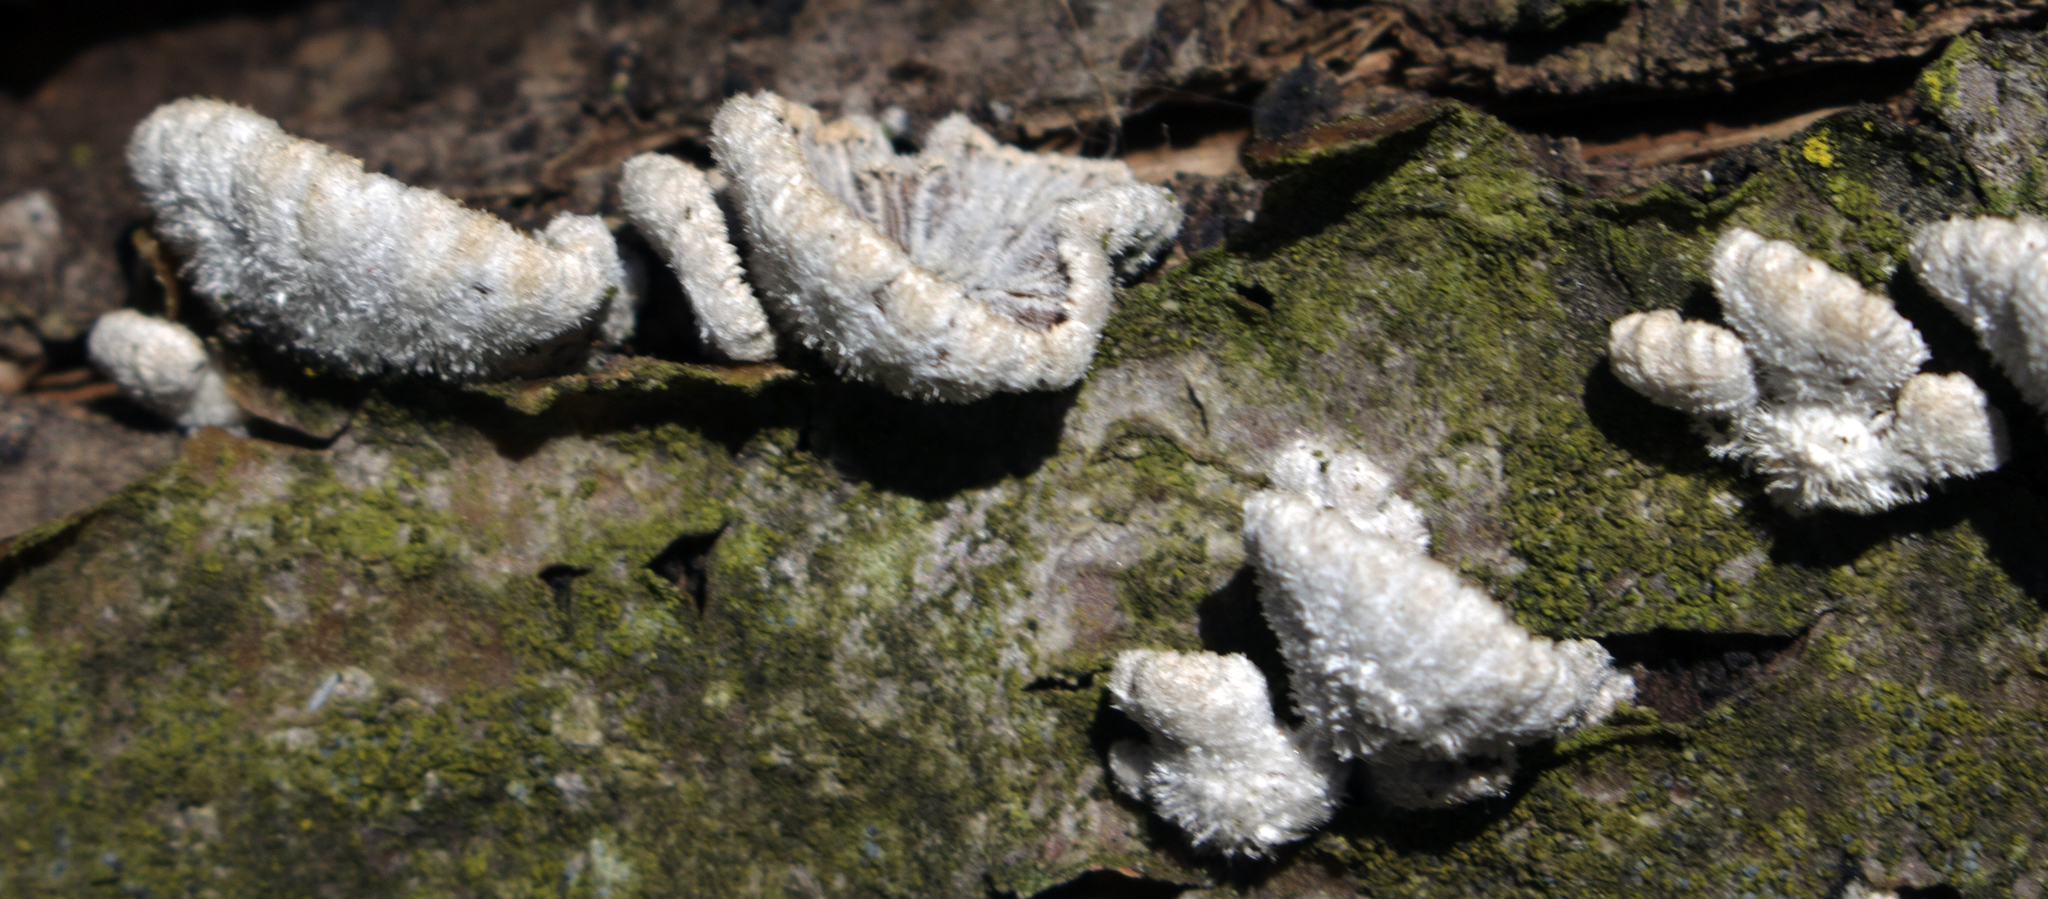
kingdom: Fungi
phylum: Basidiomycota
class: Agaricomycetes
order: Agaricales
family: Schizophyllaceae
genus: Schizophyllum
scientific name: Schizophyllum commune
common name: Common porecrust
